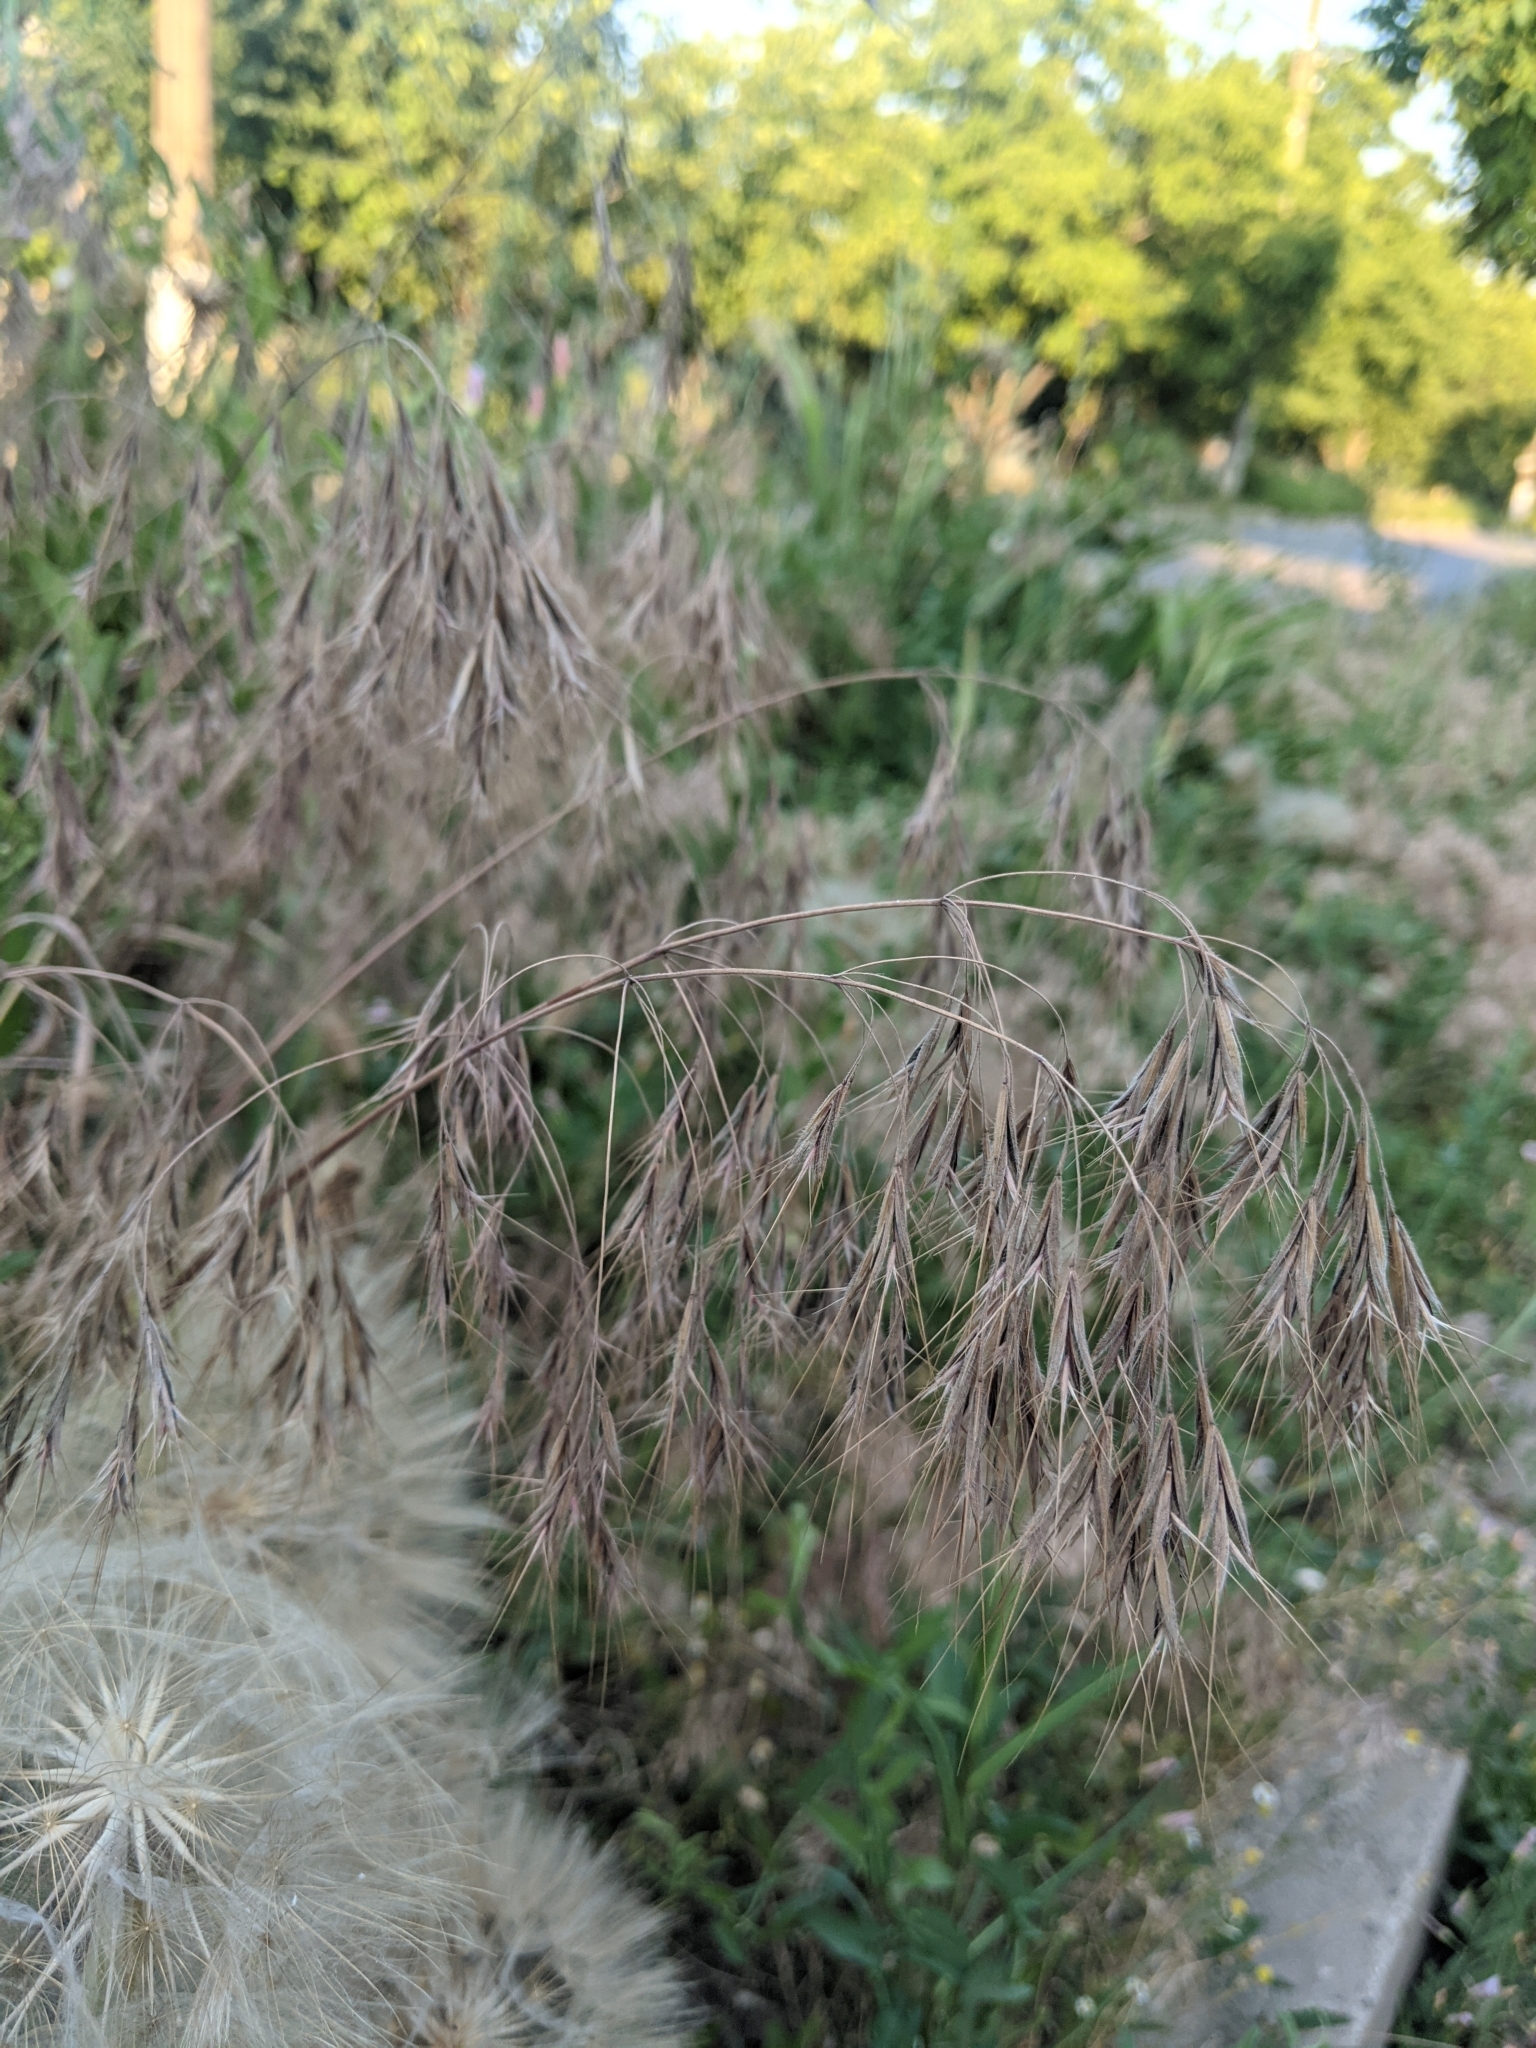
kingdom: Plantae
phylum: Tracheophyta
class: Liliopsida
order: Poales
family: Poaceae
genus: Bromus
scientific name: Bromus tectorum
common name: Cheatgrass
